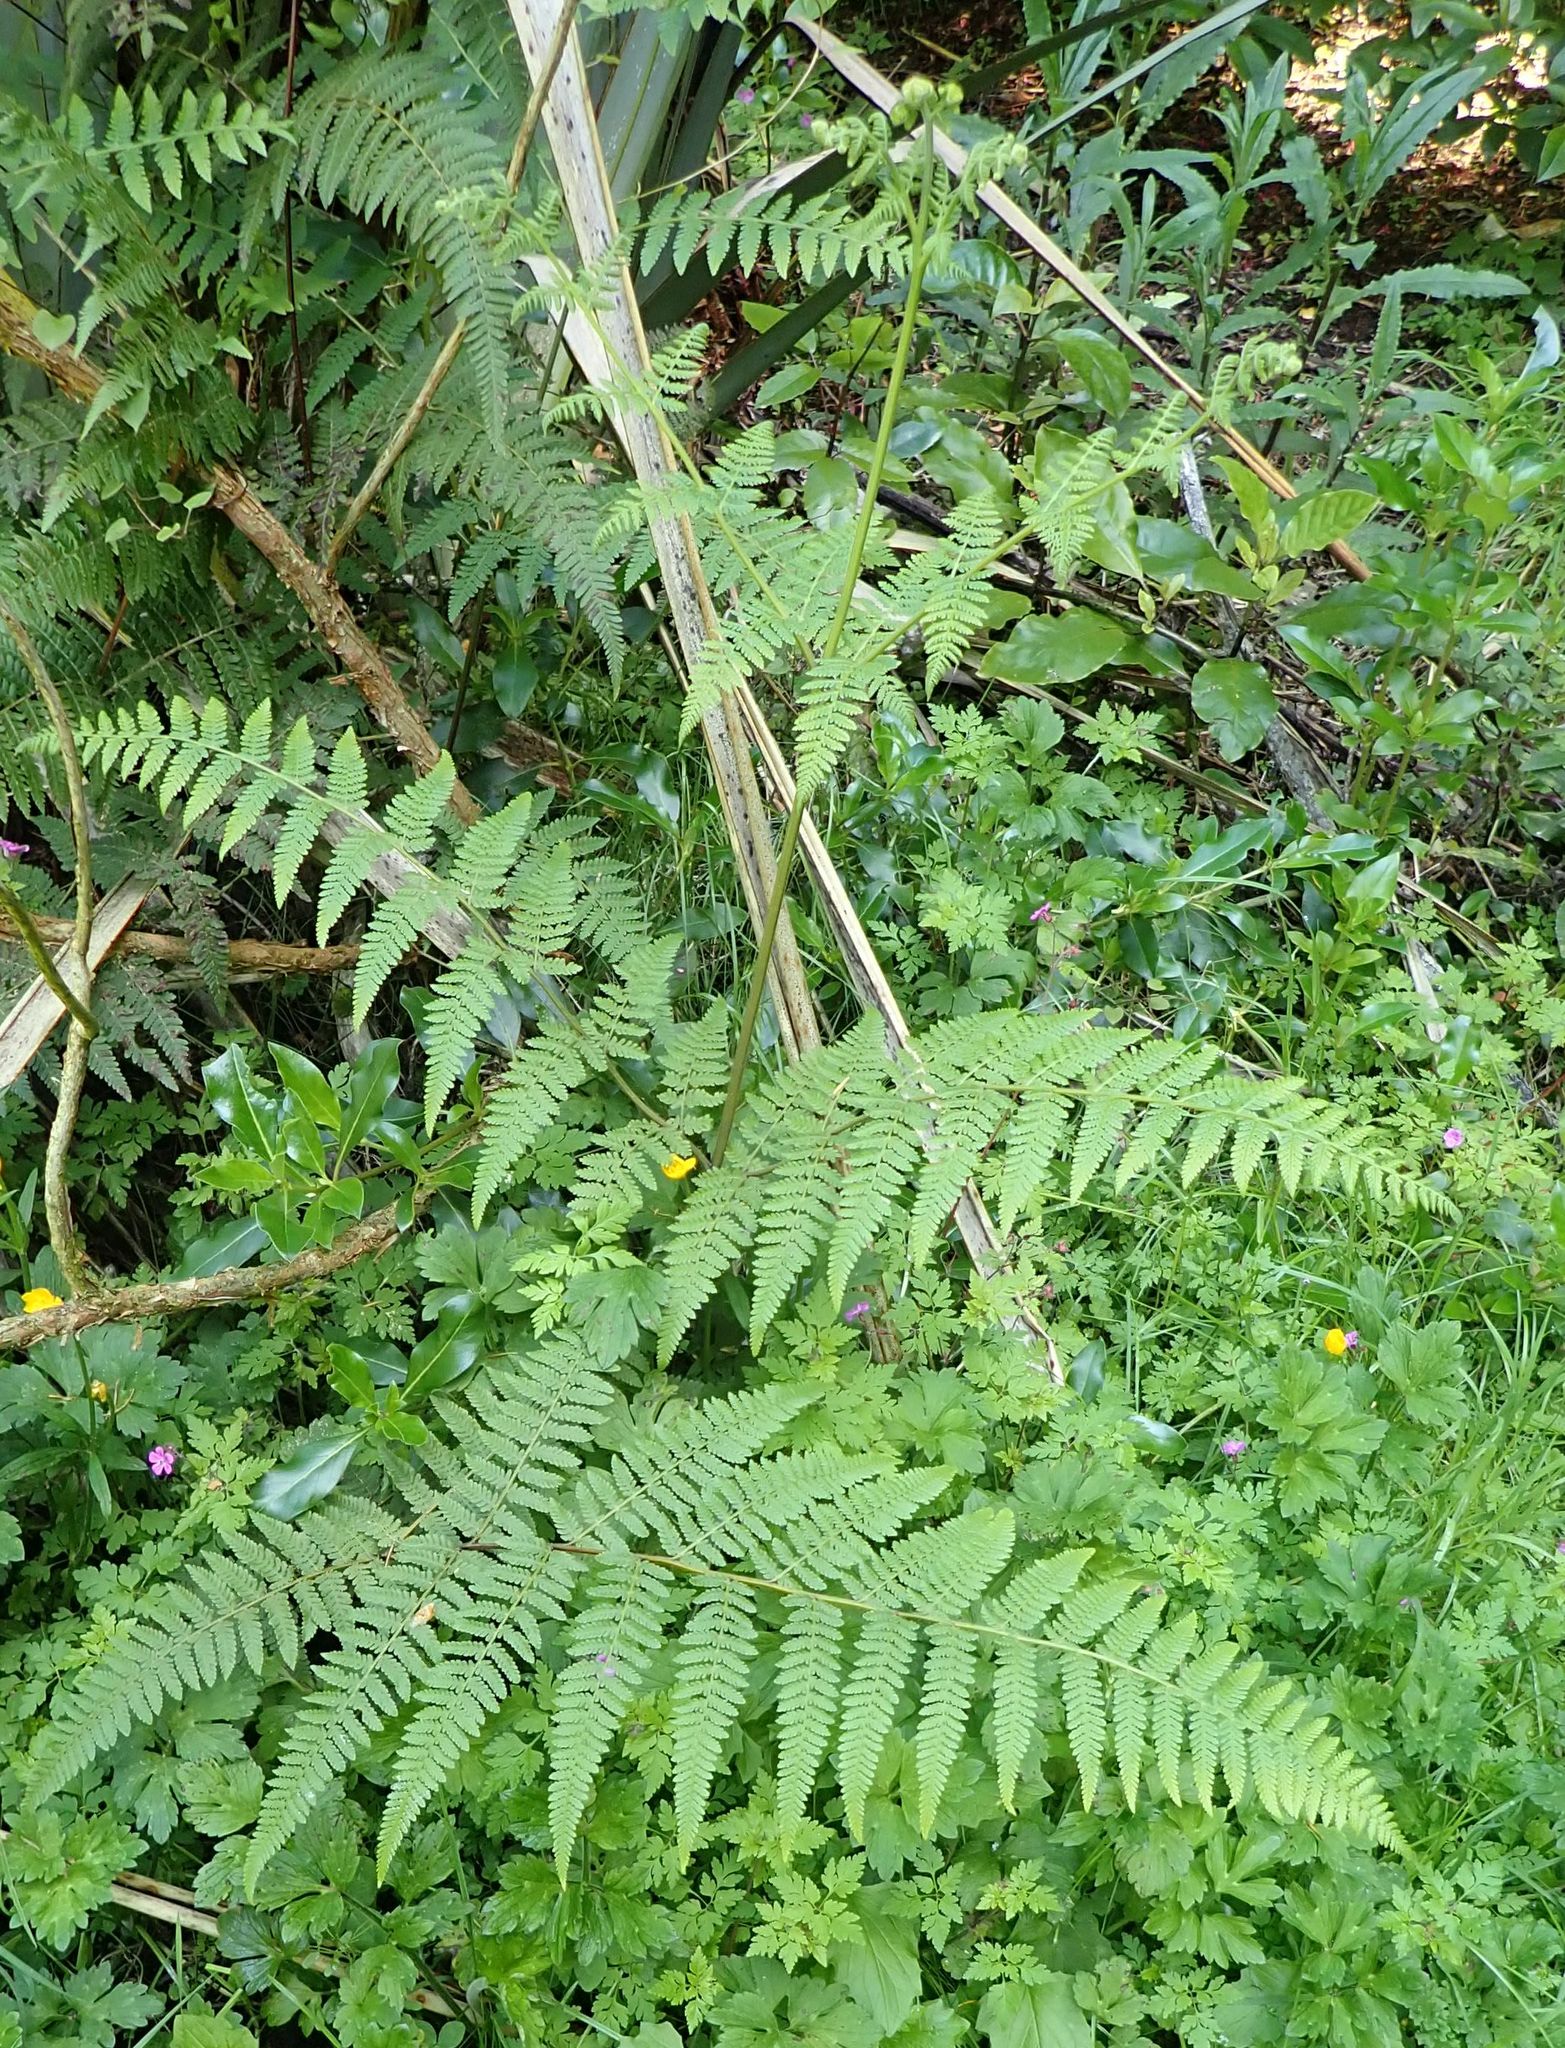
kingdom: Plantae
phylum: Tracheophyta
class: Polypodiopsida
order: Polypodiales
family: Dennstaedtiaceae
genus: Hypolepis
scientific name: Hypolepis ambigua
